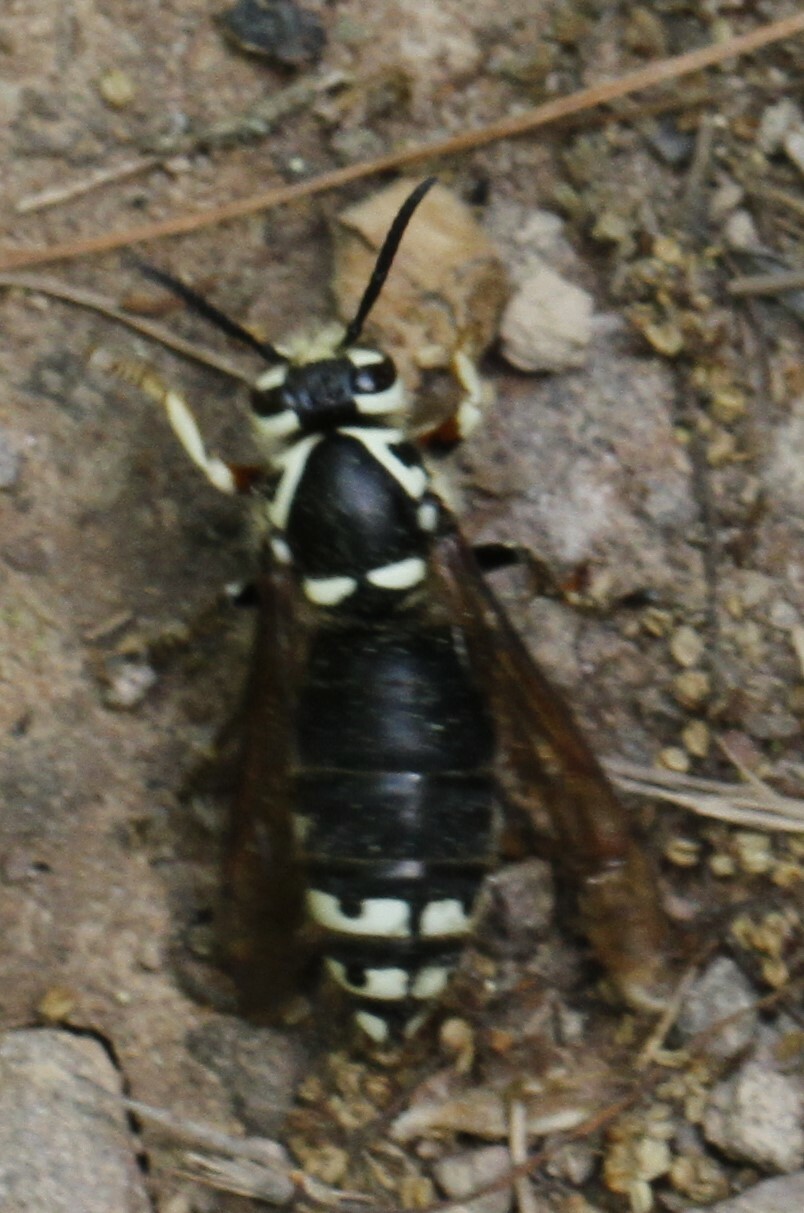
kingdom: Animalia
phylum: Arthropoda
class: Insecta
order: Hymenoptera
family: Vespidae
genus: Dolichovespula
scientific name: Dolichovespula maculata
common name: Bald-faced hornet
